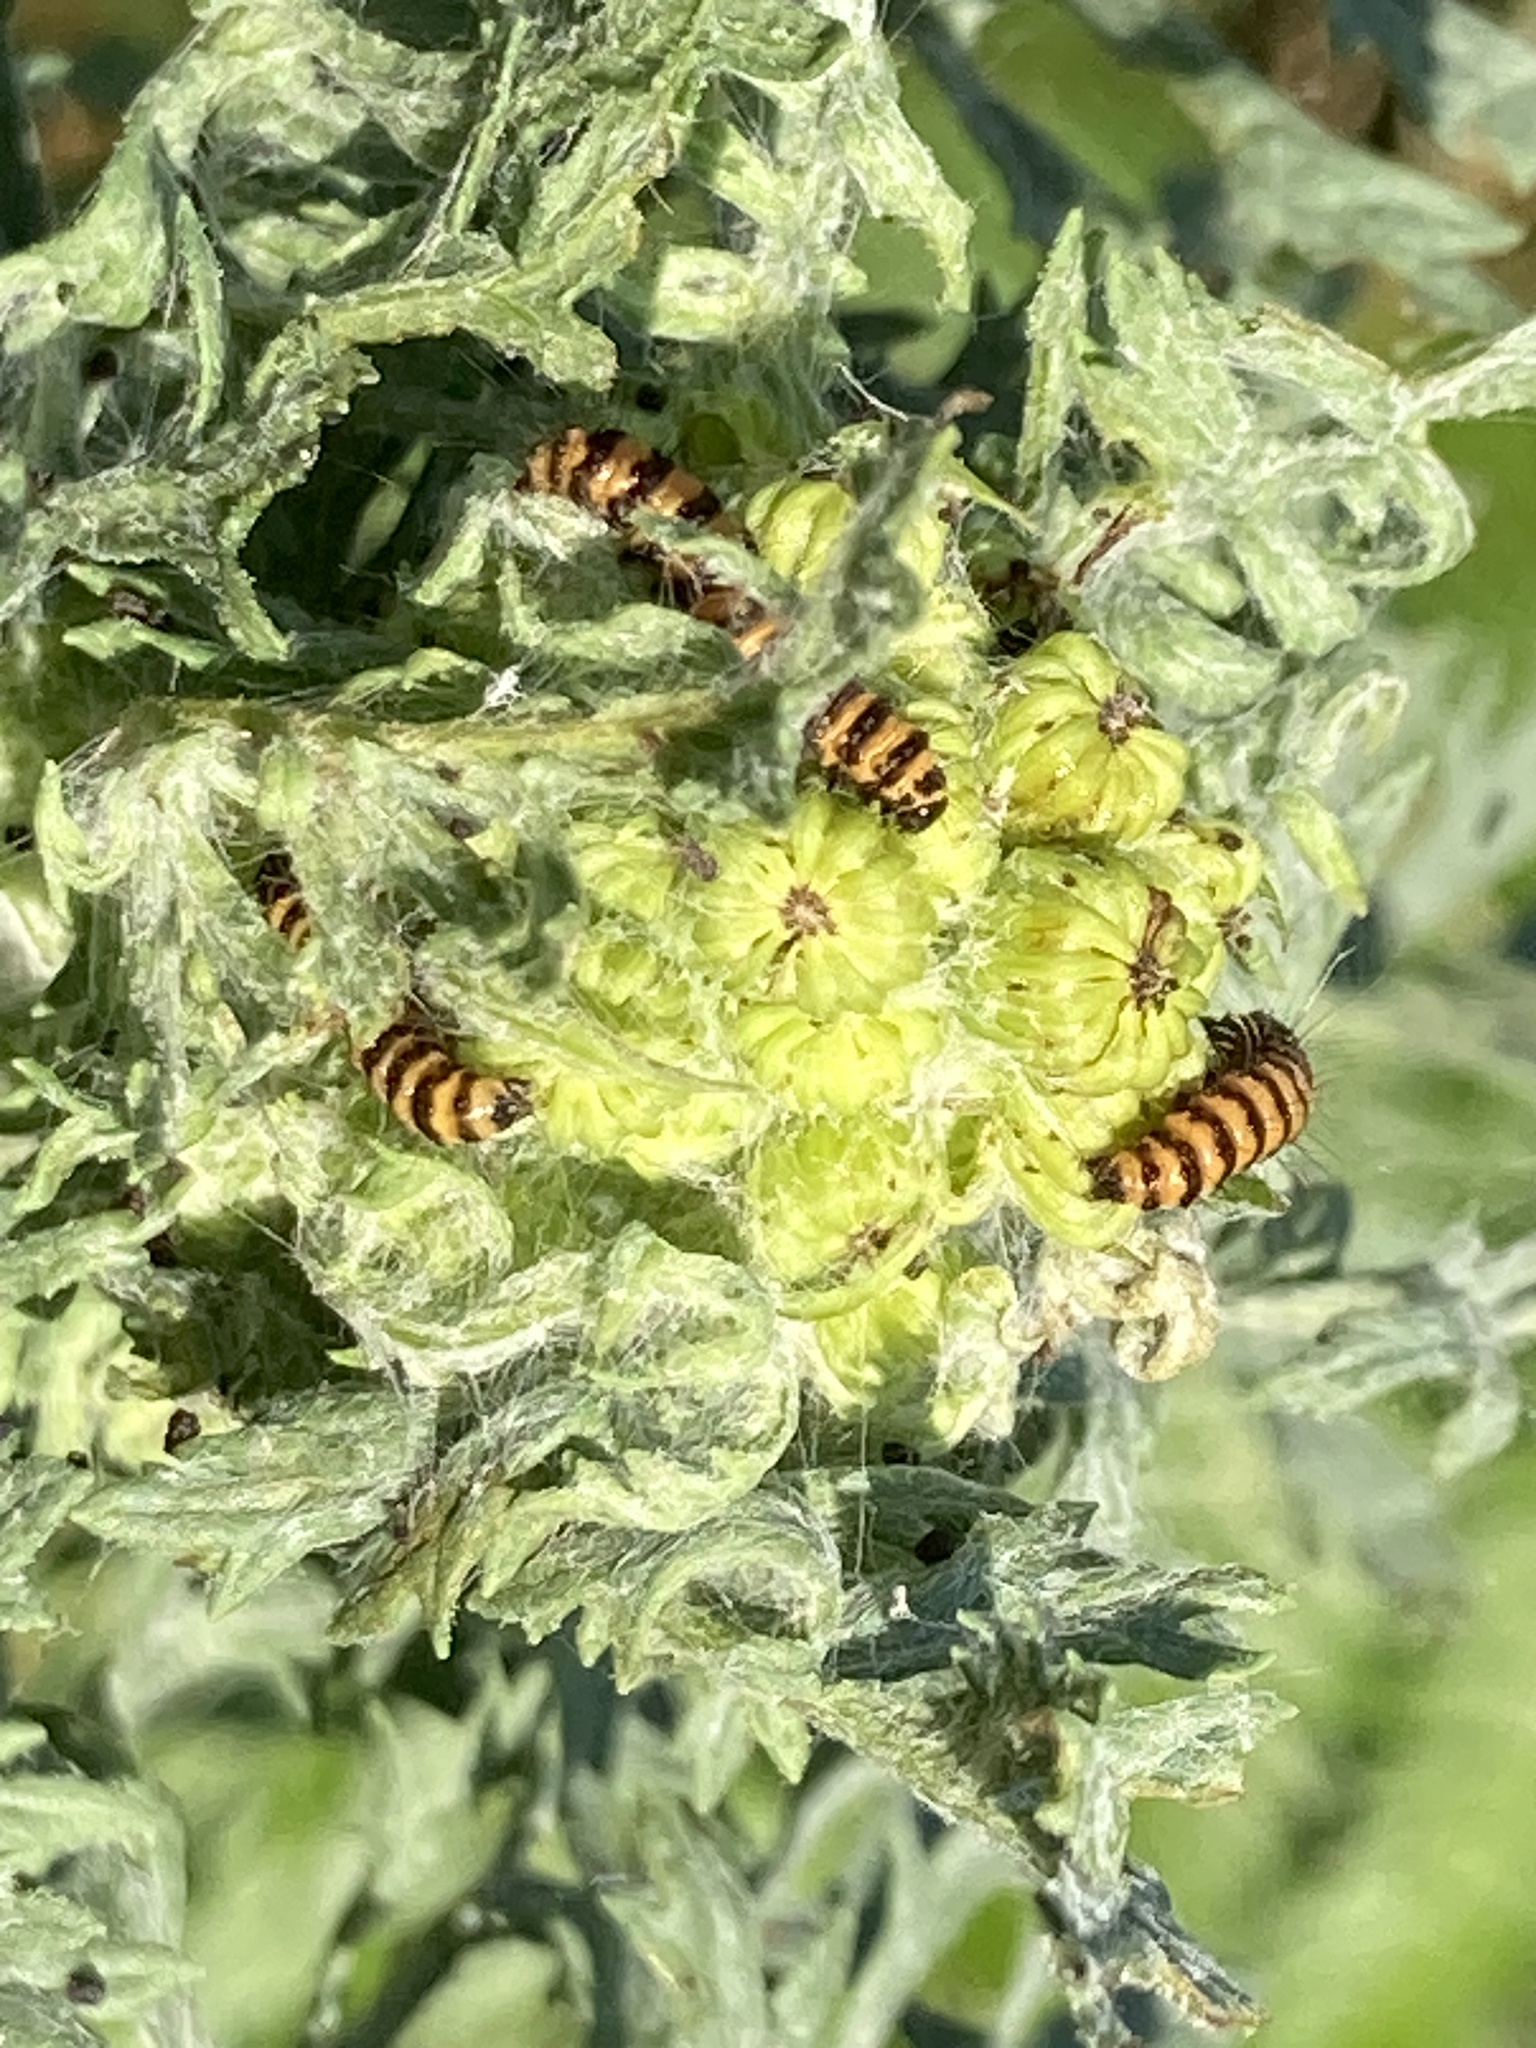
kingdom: Animalia
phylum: Arthropoda
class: Insecta
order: Lepidoptera
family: Erebidae
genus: Tyria
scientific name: Tyria jacobaeae
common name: Cinnabar
